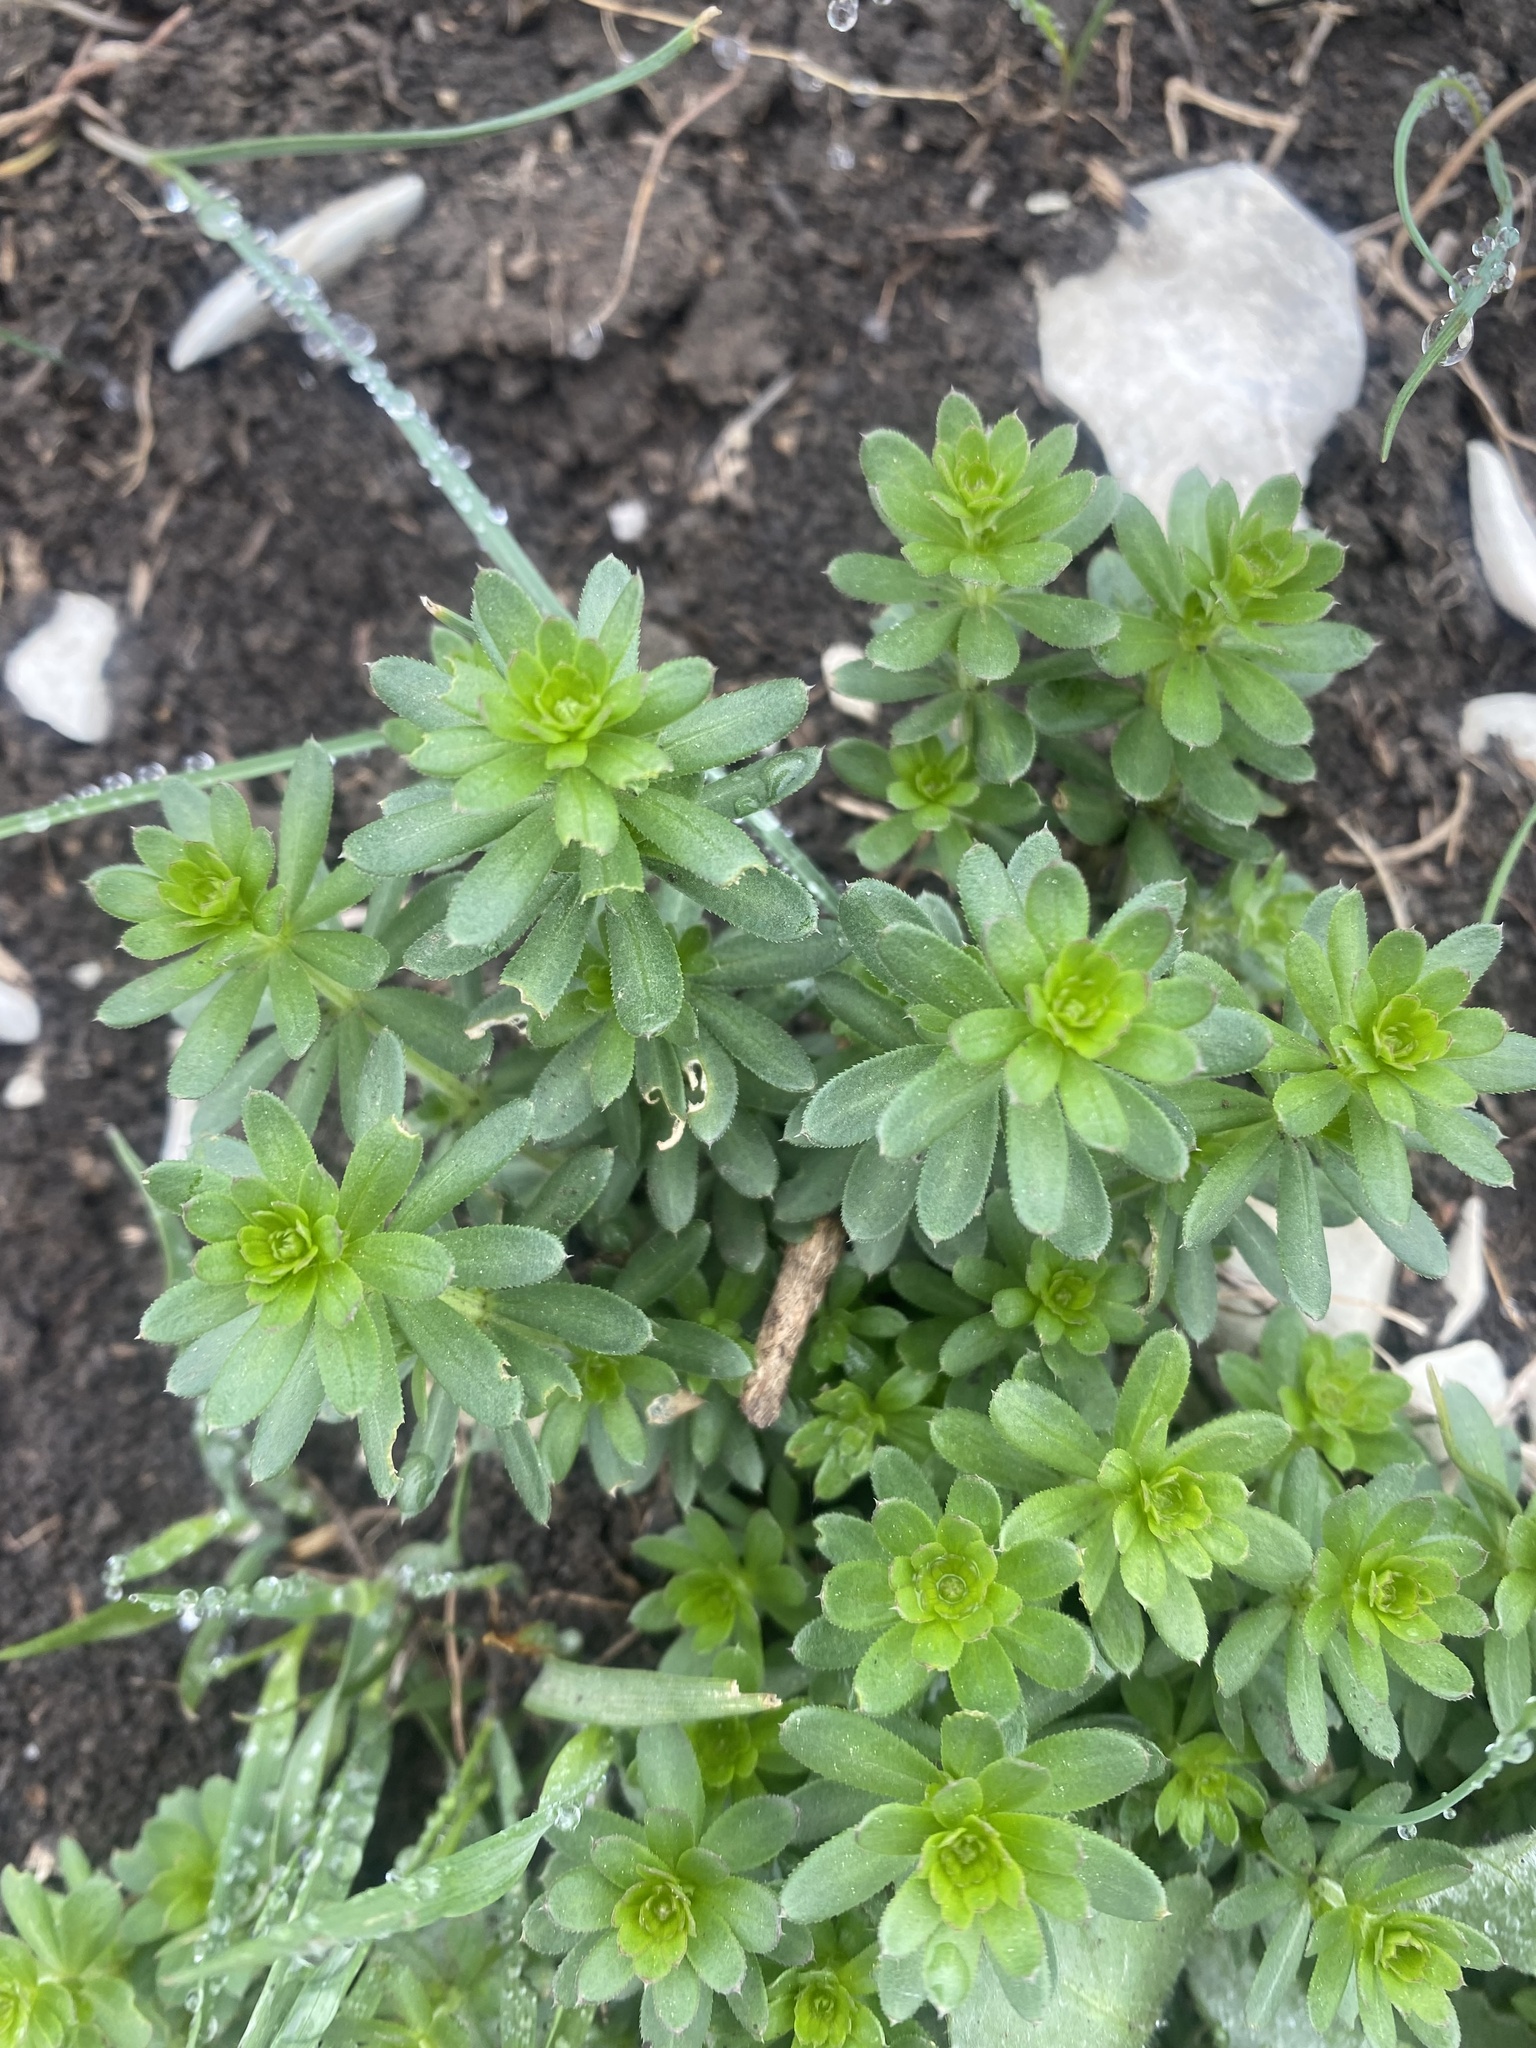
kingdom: Plantae
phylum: Tracheophyta
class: Magnoliopsida
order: Gentianales
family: Rubiaceae
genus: Galium
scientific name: Galium mollugo
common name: Hedge bedstraw
